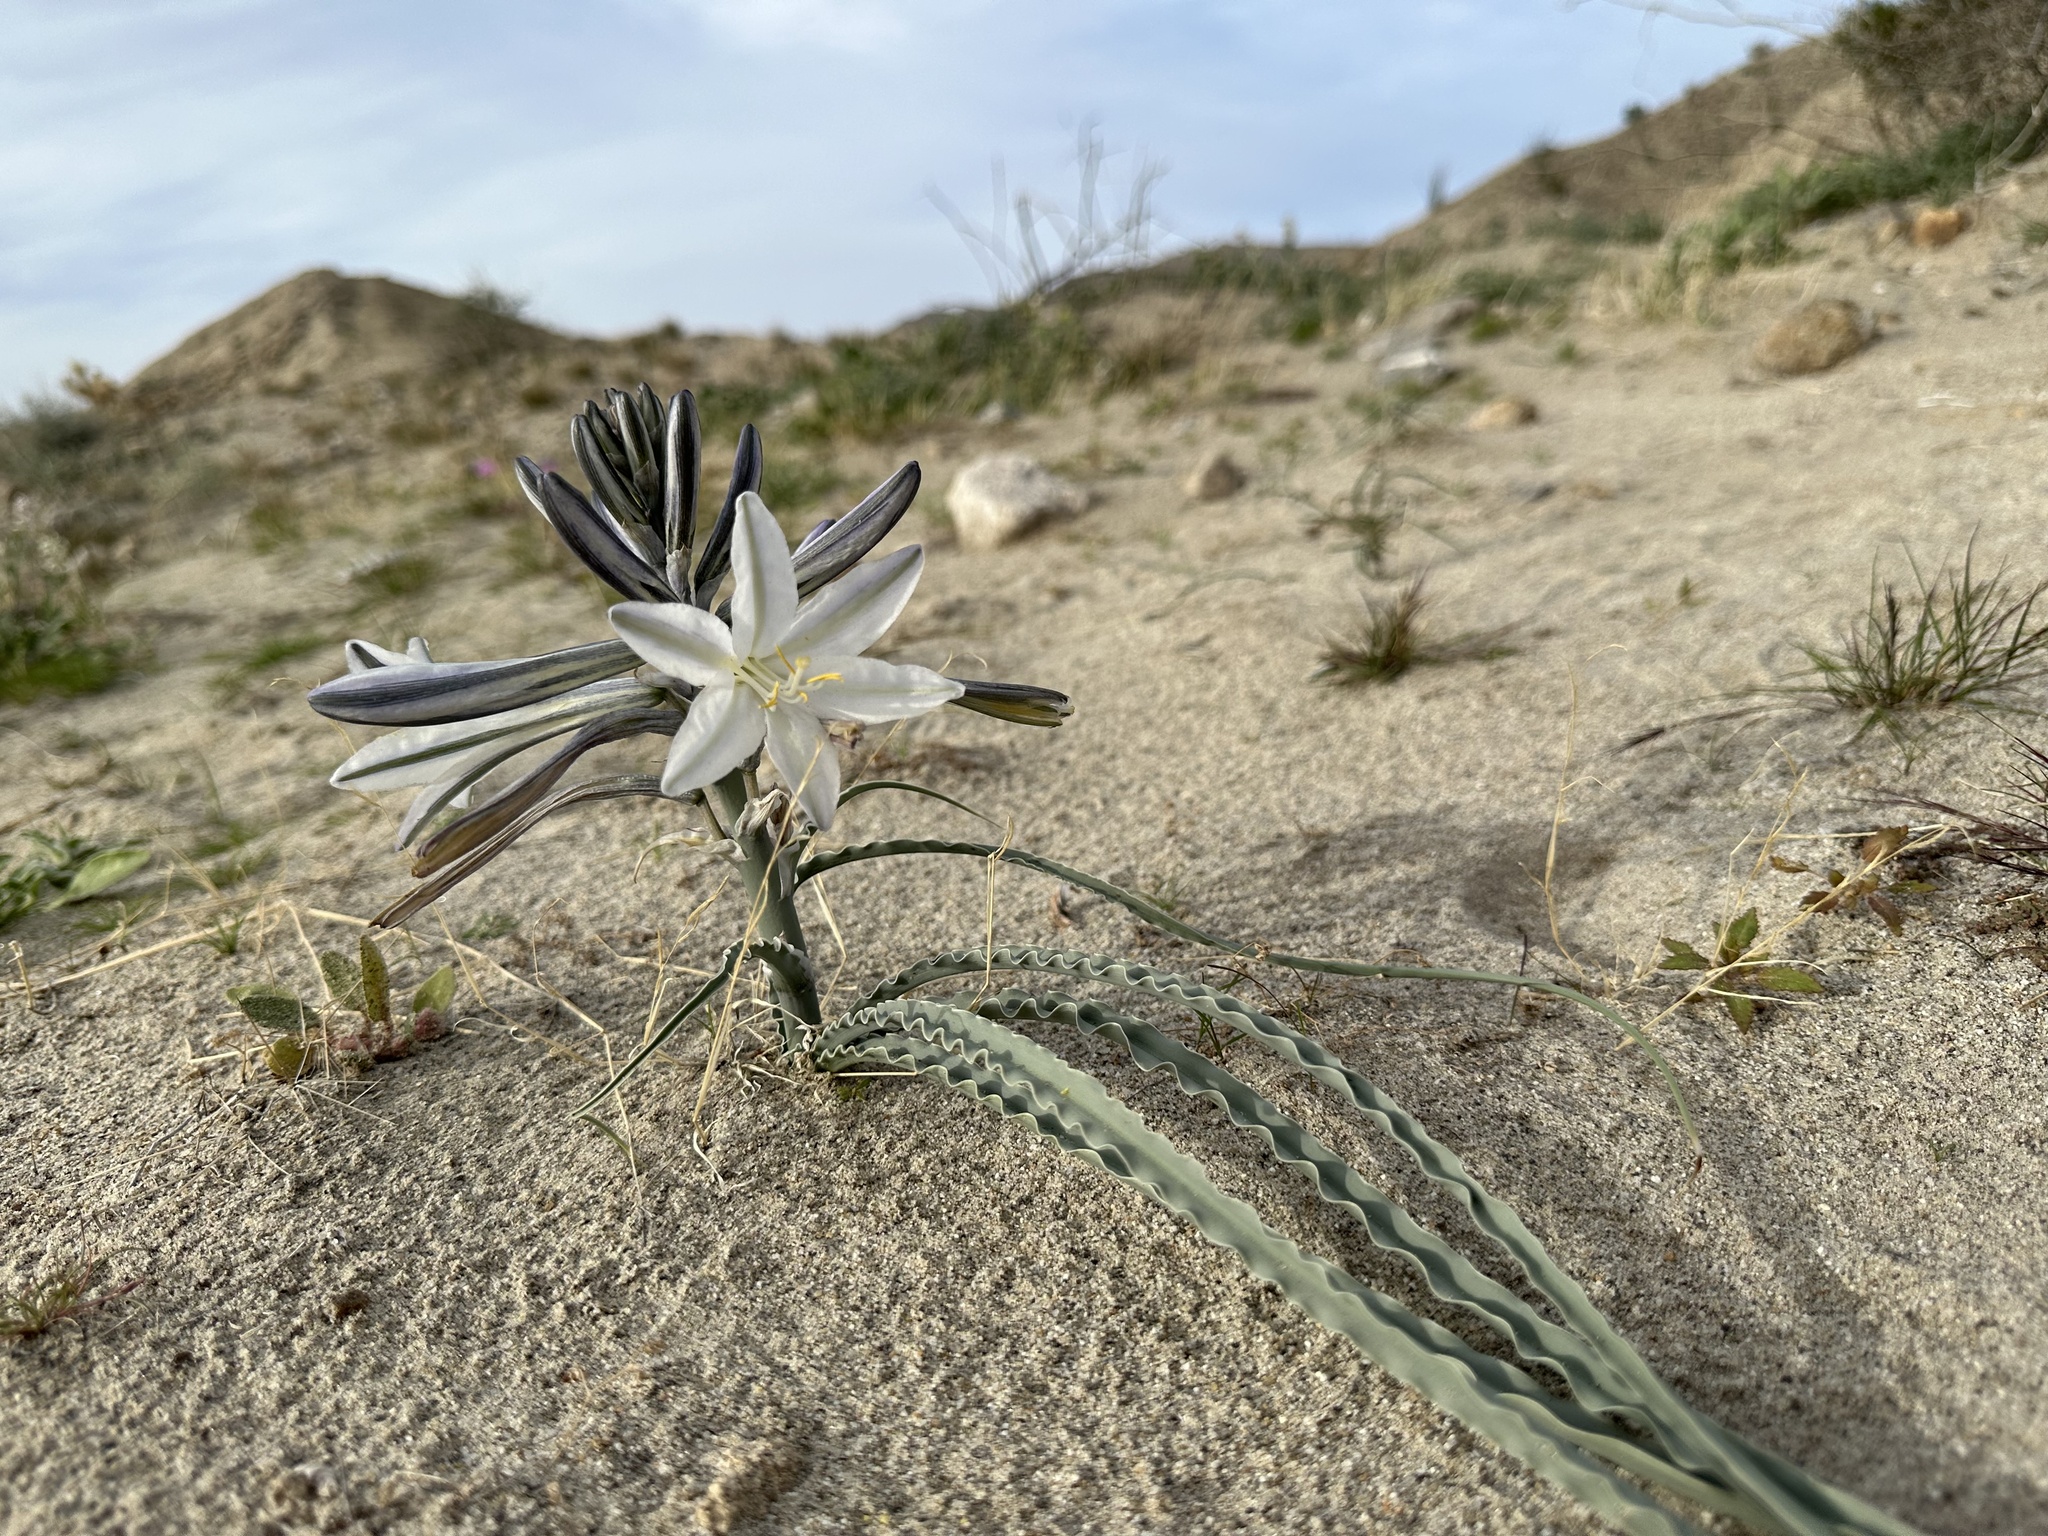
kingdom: Plantae
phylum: Tracheophyta
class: Liliopsida
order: Asparagales
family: Asparagaceae
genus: Hesperocallis
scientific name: Hesperocallis undulata
